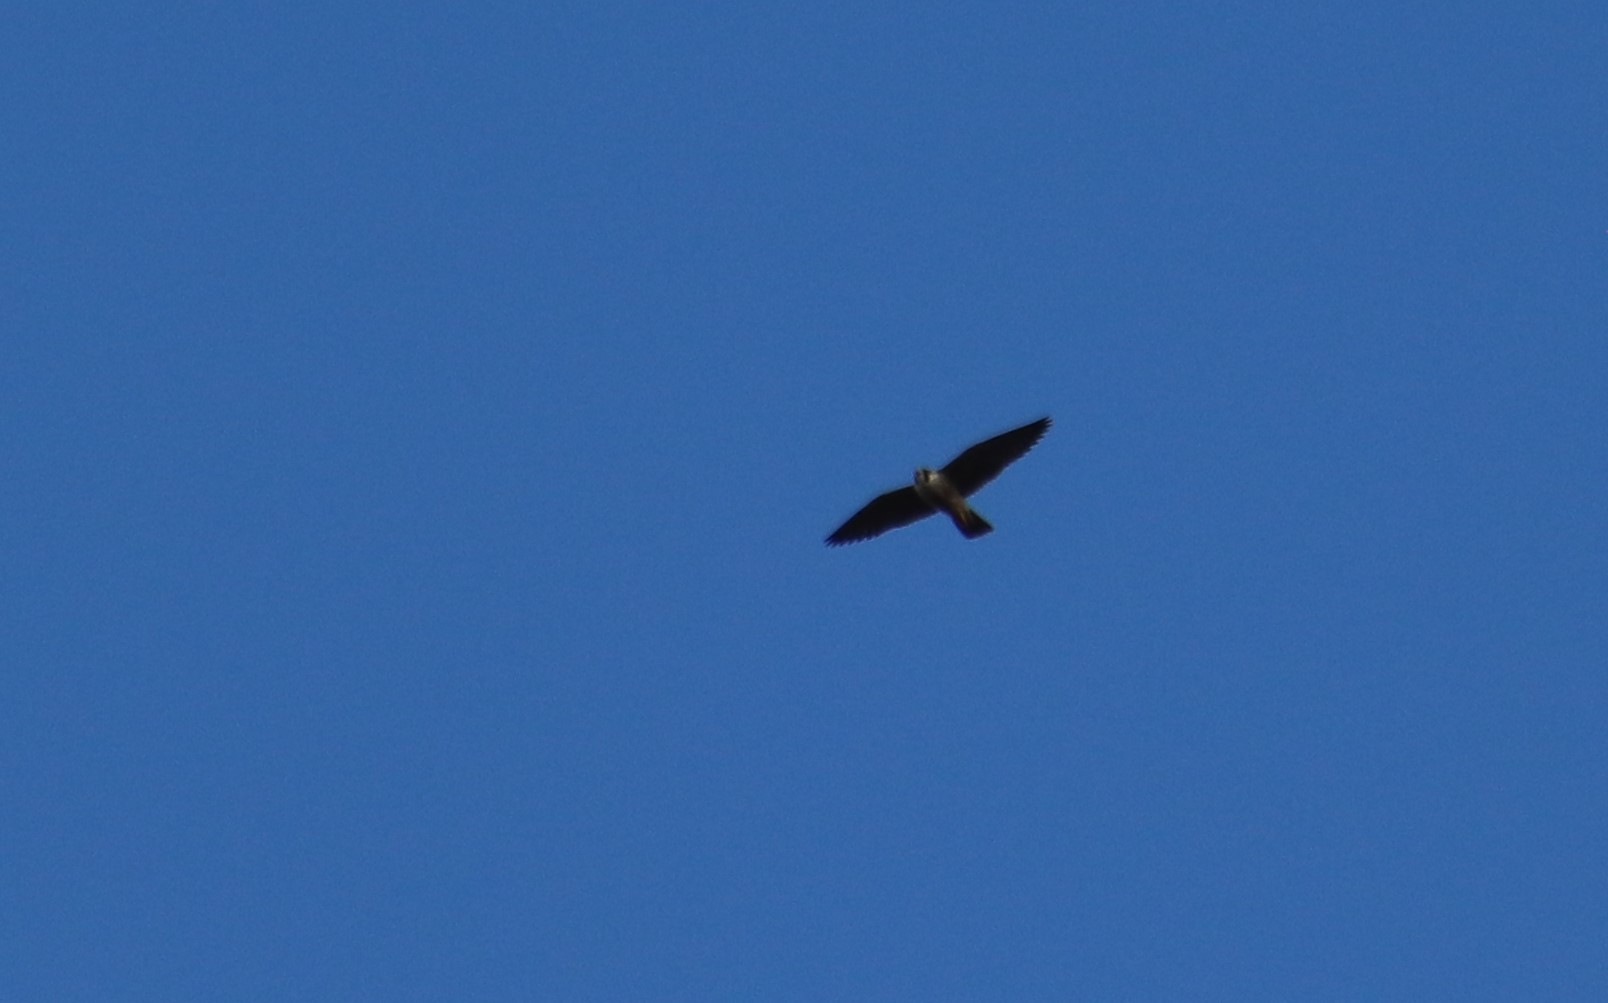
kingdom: Animalia
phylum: Chordata
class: Aves
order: Falconiformes
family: Falconidae
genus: Falco
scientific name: Falco peregrinus
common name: Peregrine falcon
